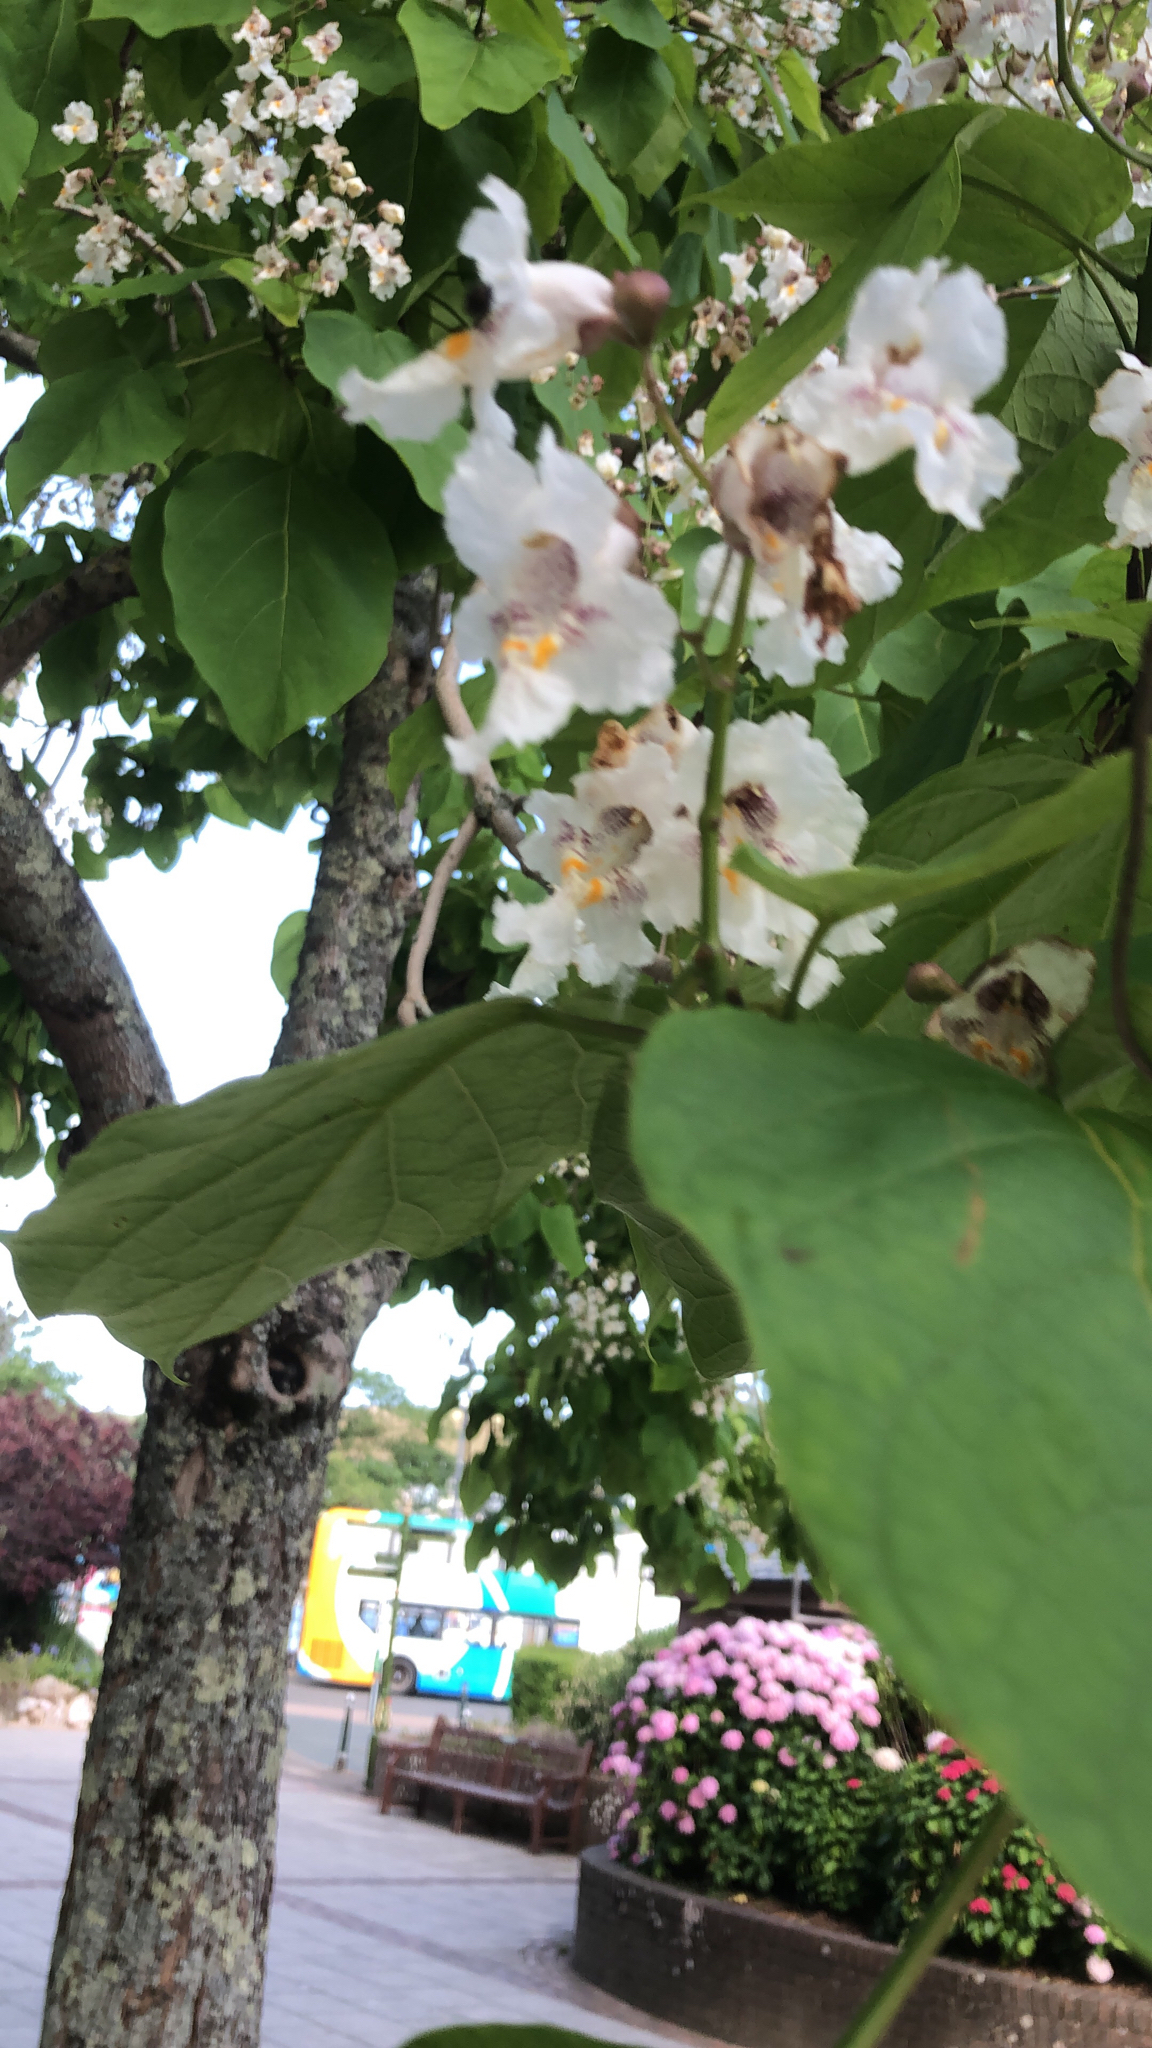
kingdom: Plantae
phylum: Tracheophyta
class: Magnoliopsida
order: Lamiales
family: Bignoniaceae
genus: Catalpa
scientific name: Catalpa bignonioides
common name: Southern catalpa
